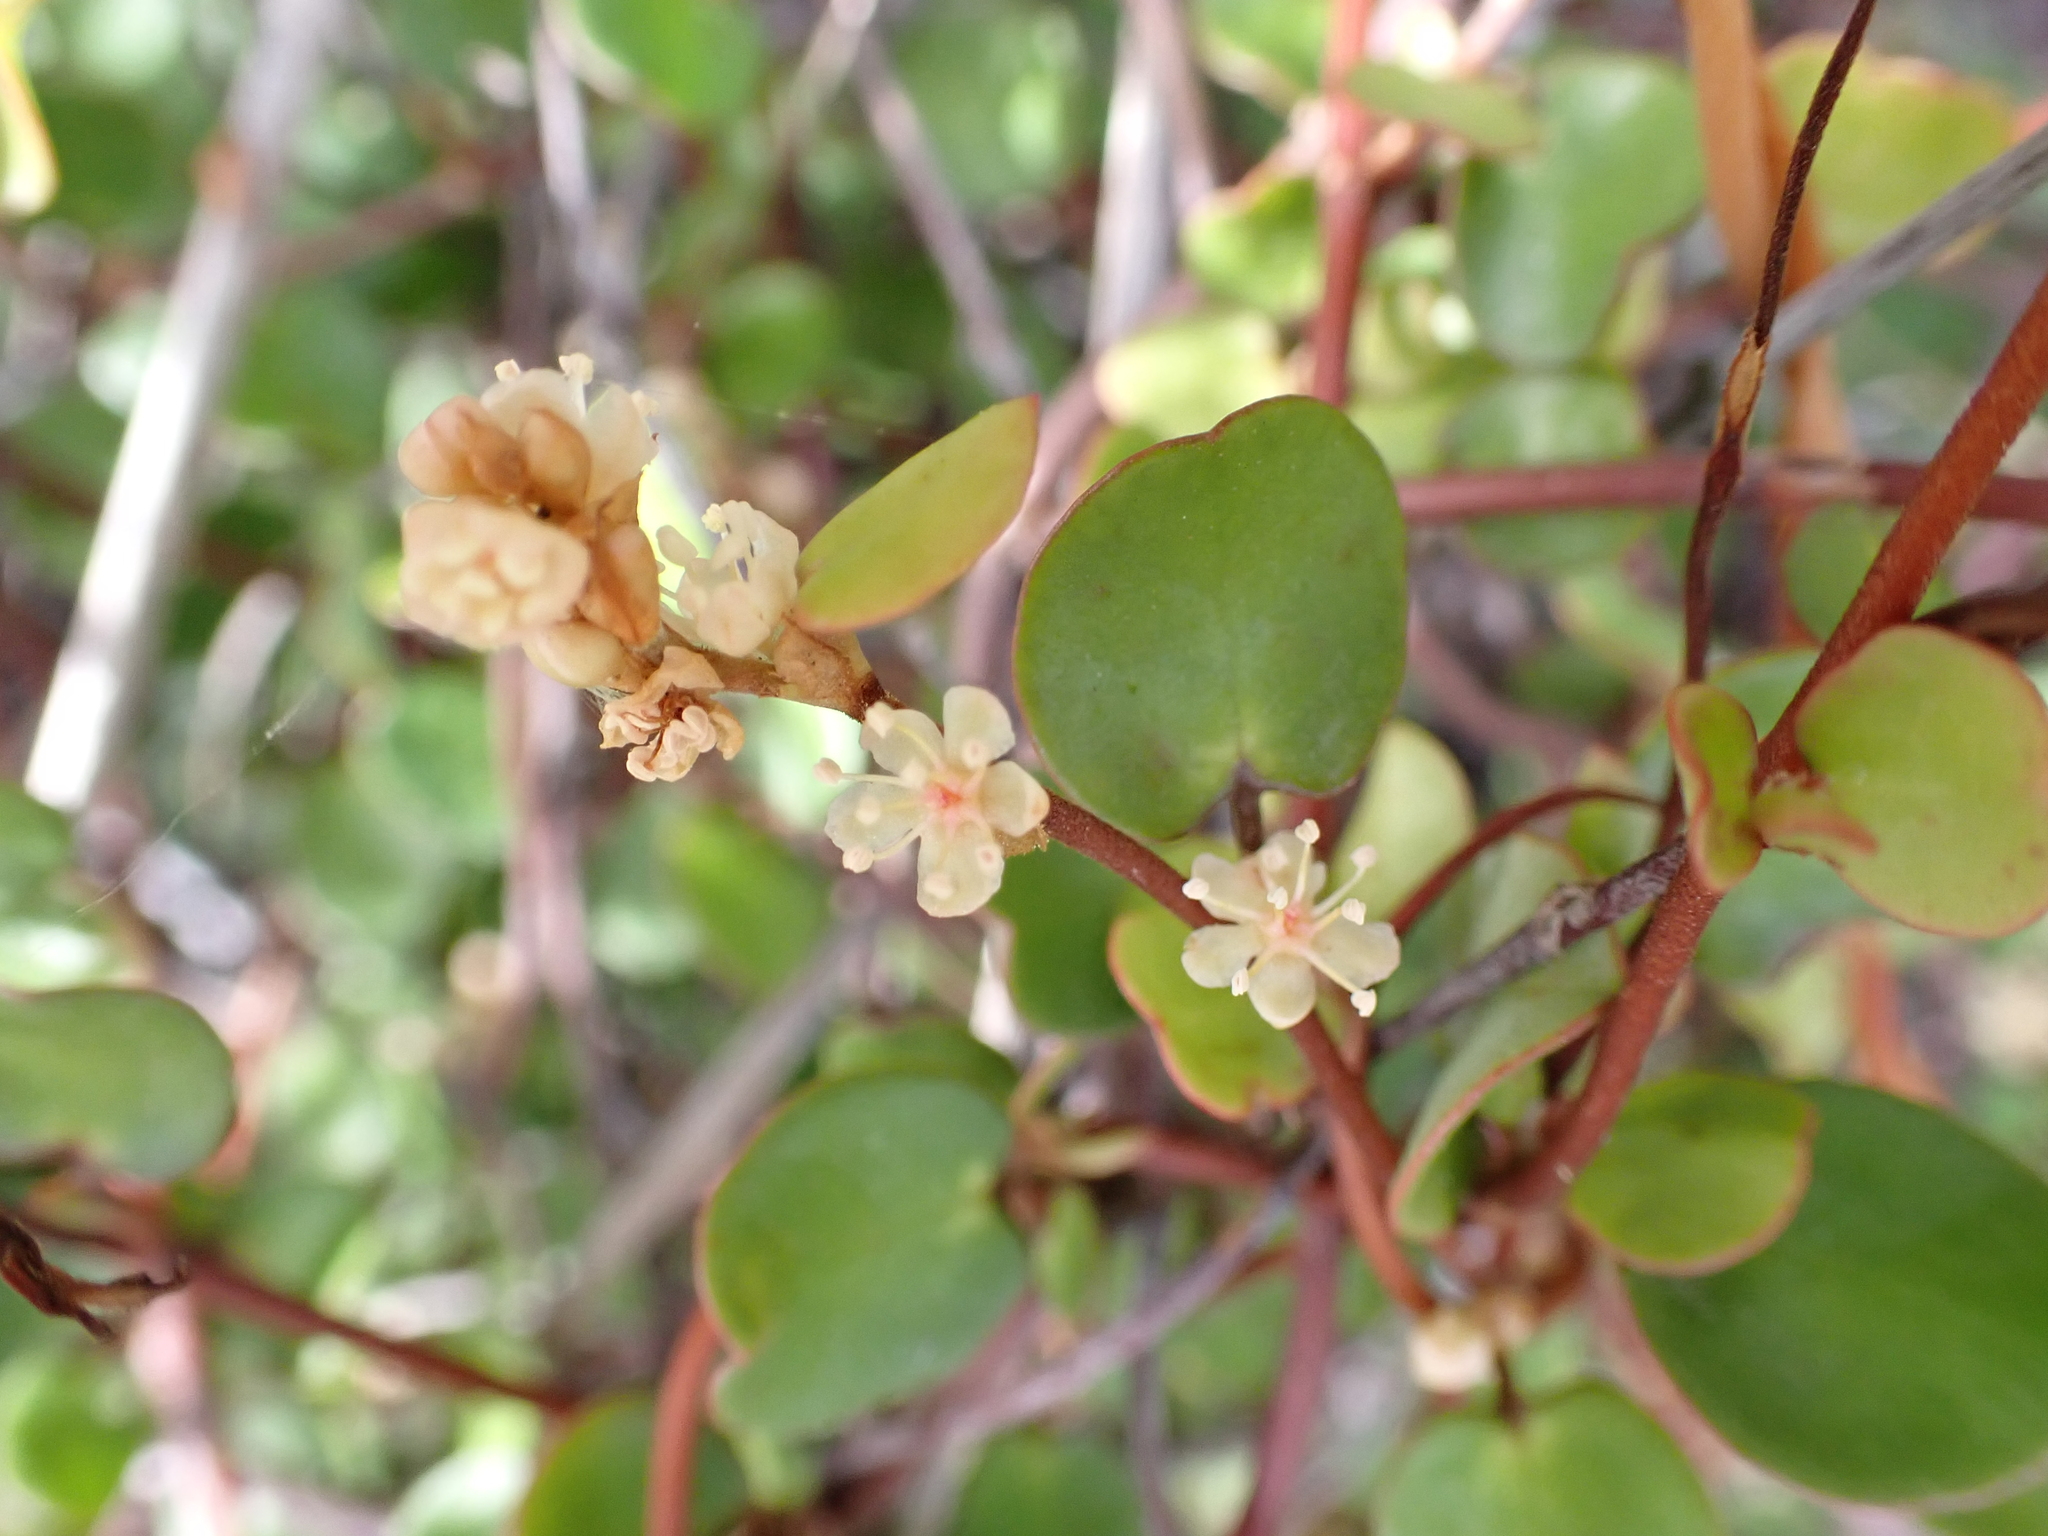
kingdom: Plantae
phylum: Tracheophyta
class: Magnoliopsida
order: Caryophyllales
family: Polygonaceae
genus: Muehlenbeckia
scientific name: Muehlenbeckia complexa
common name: Wireplant
